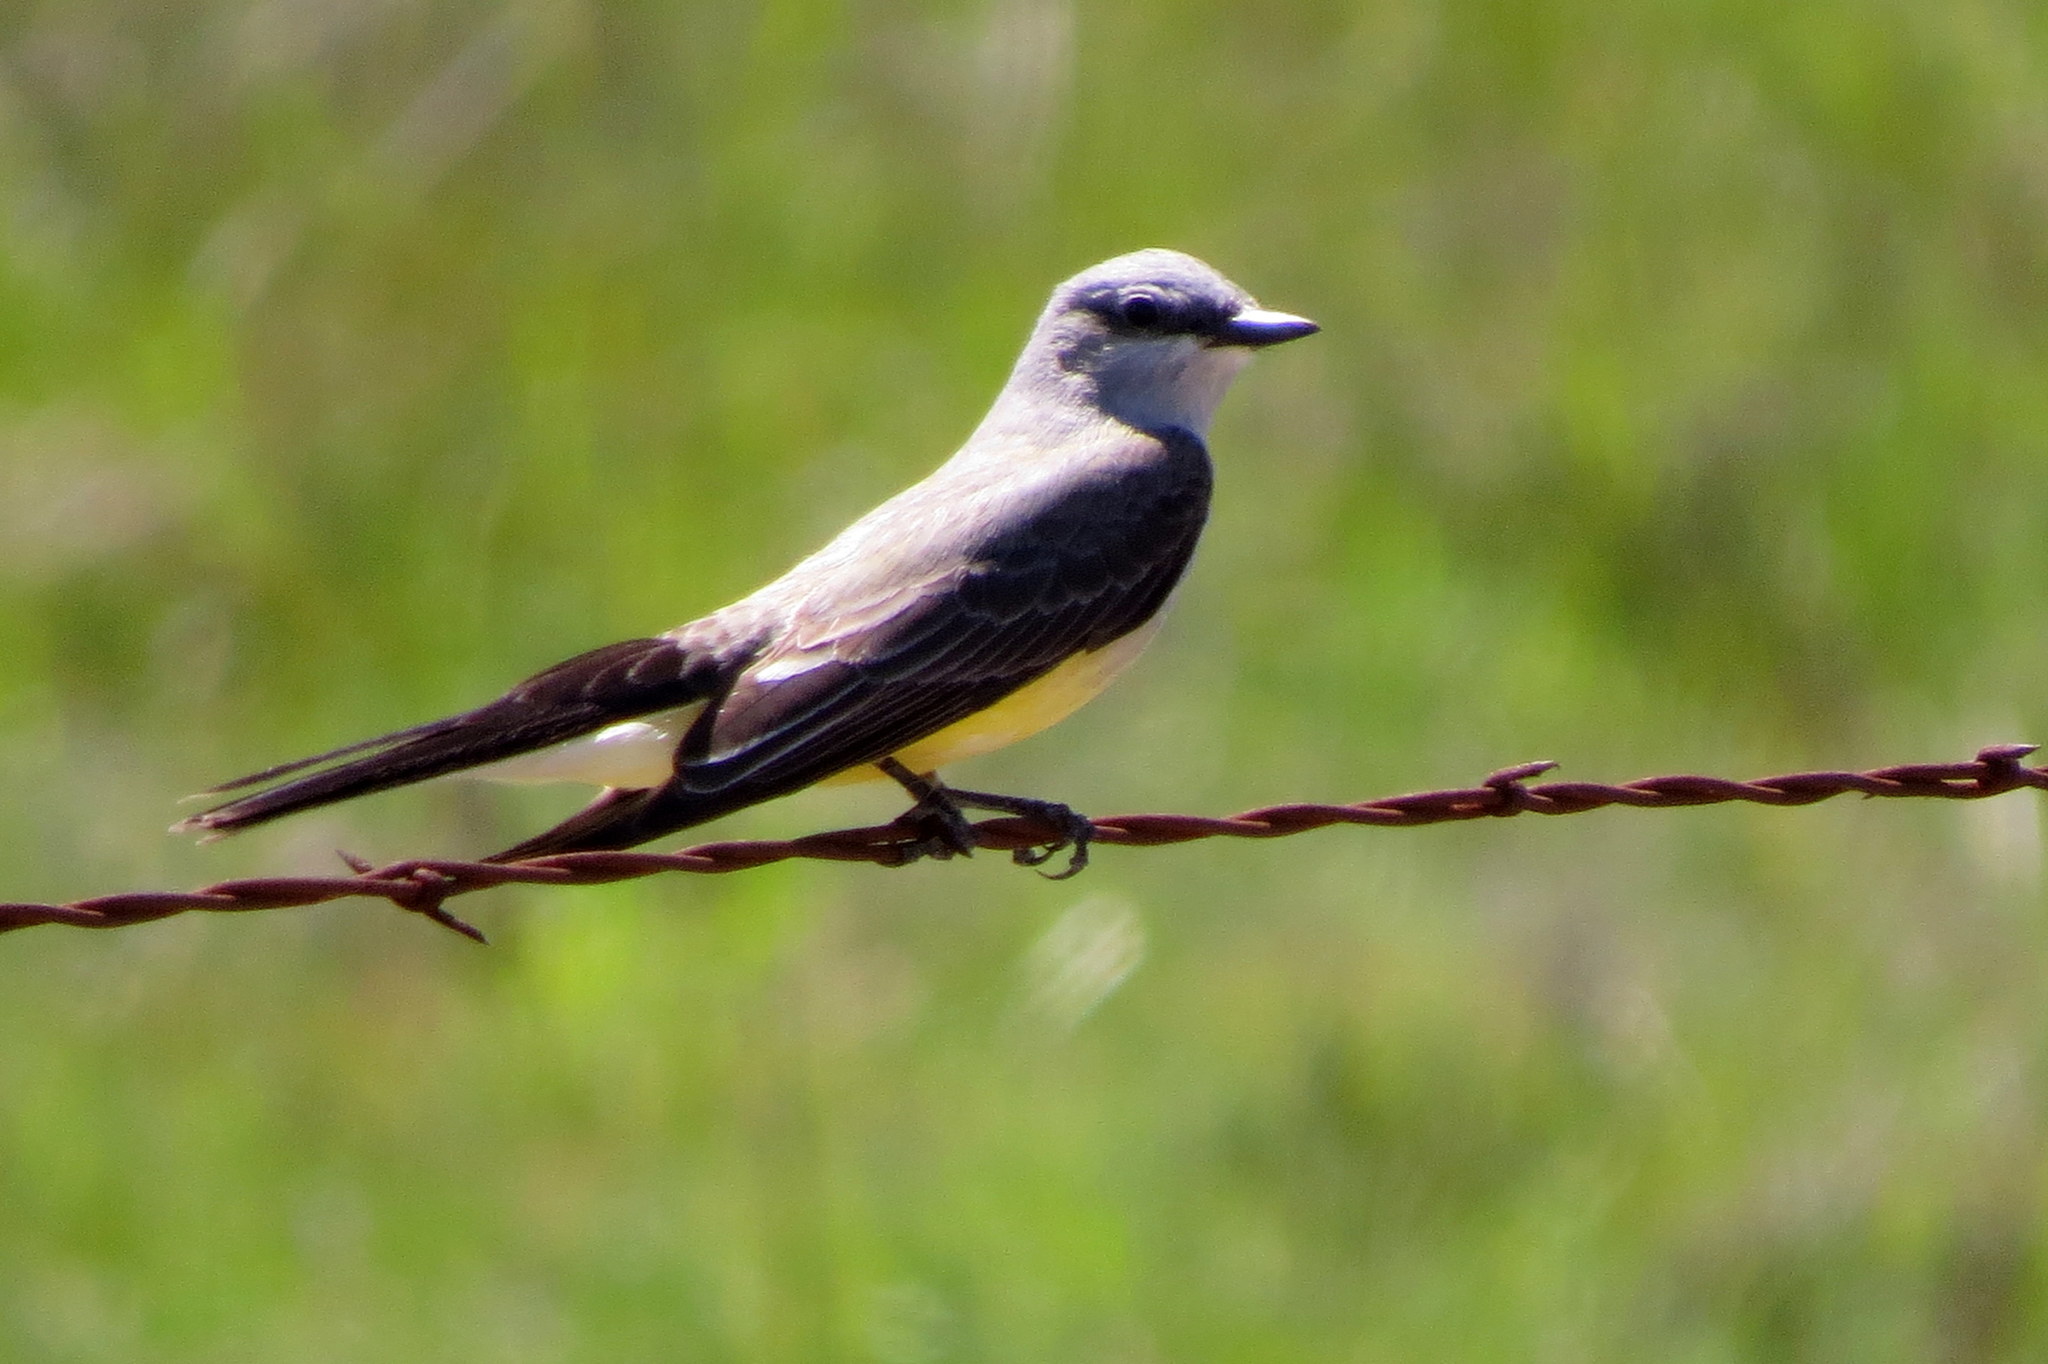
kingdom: Animalia
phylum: Chordata
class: Aves
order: Passeriformes
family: Tyrannidae
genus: Tyrannus
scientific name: Tyrannus verticalis
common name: Western kingbird
